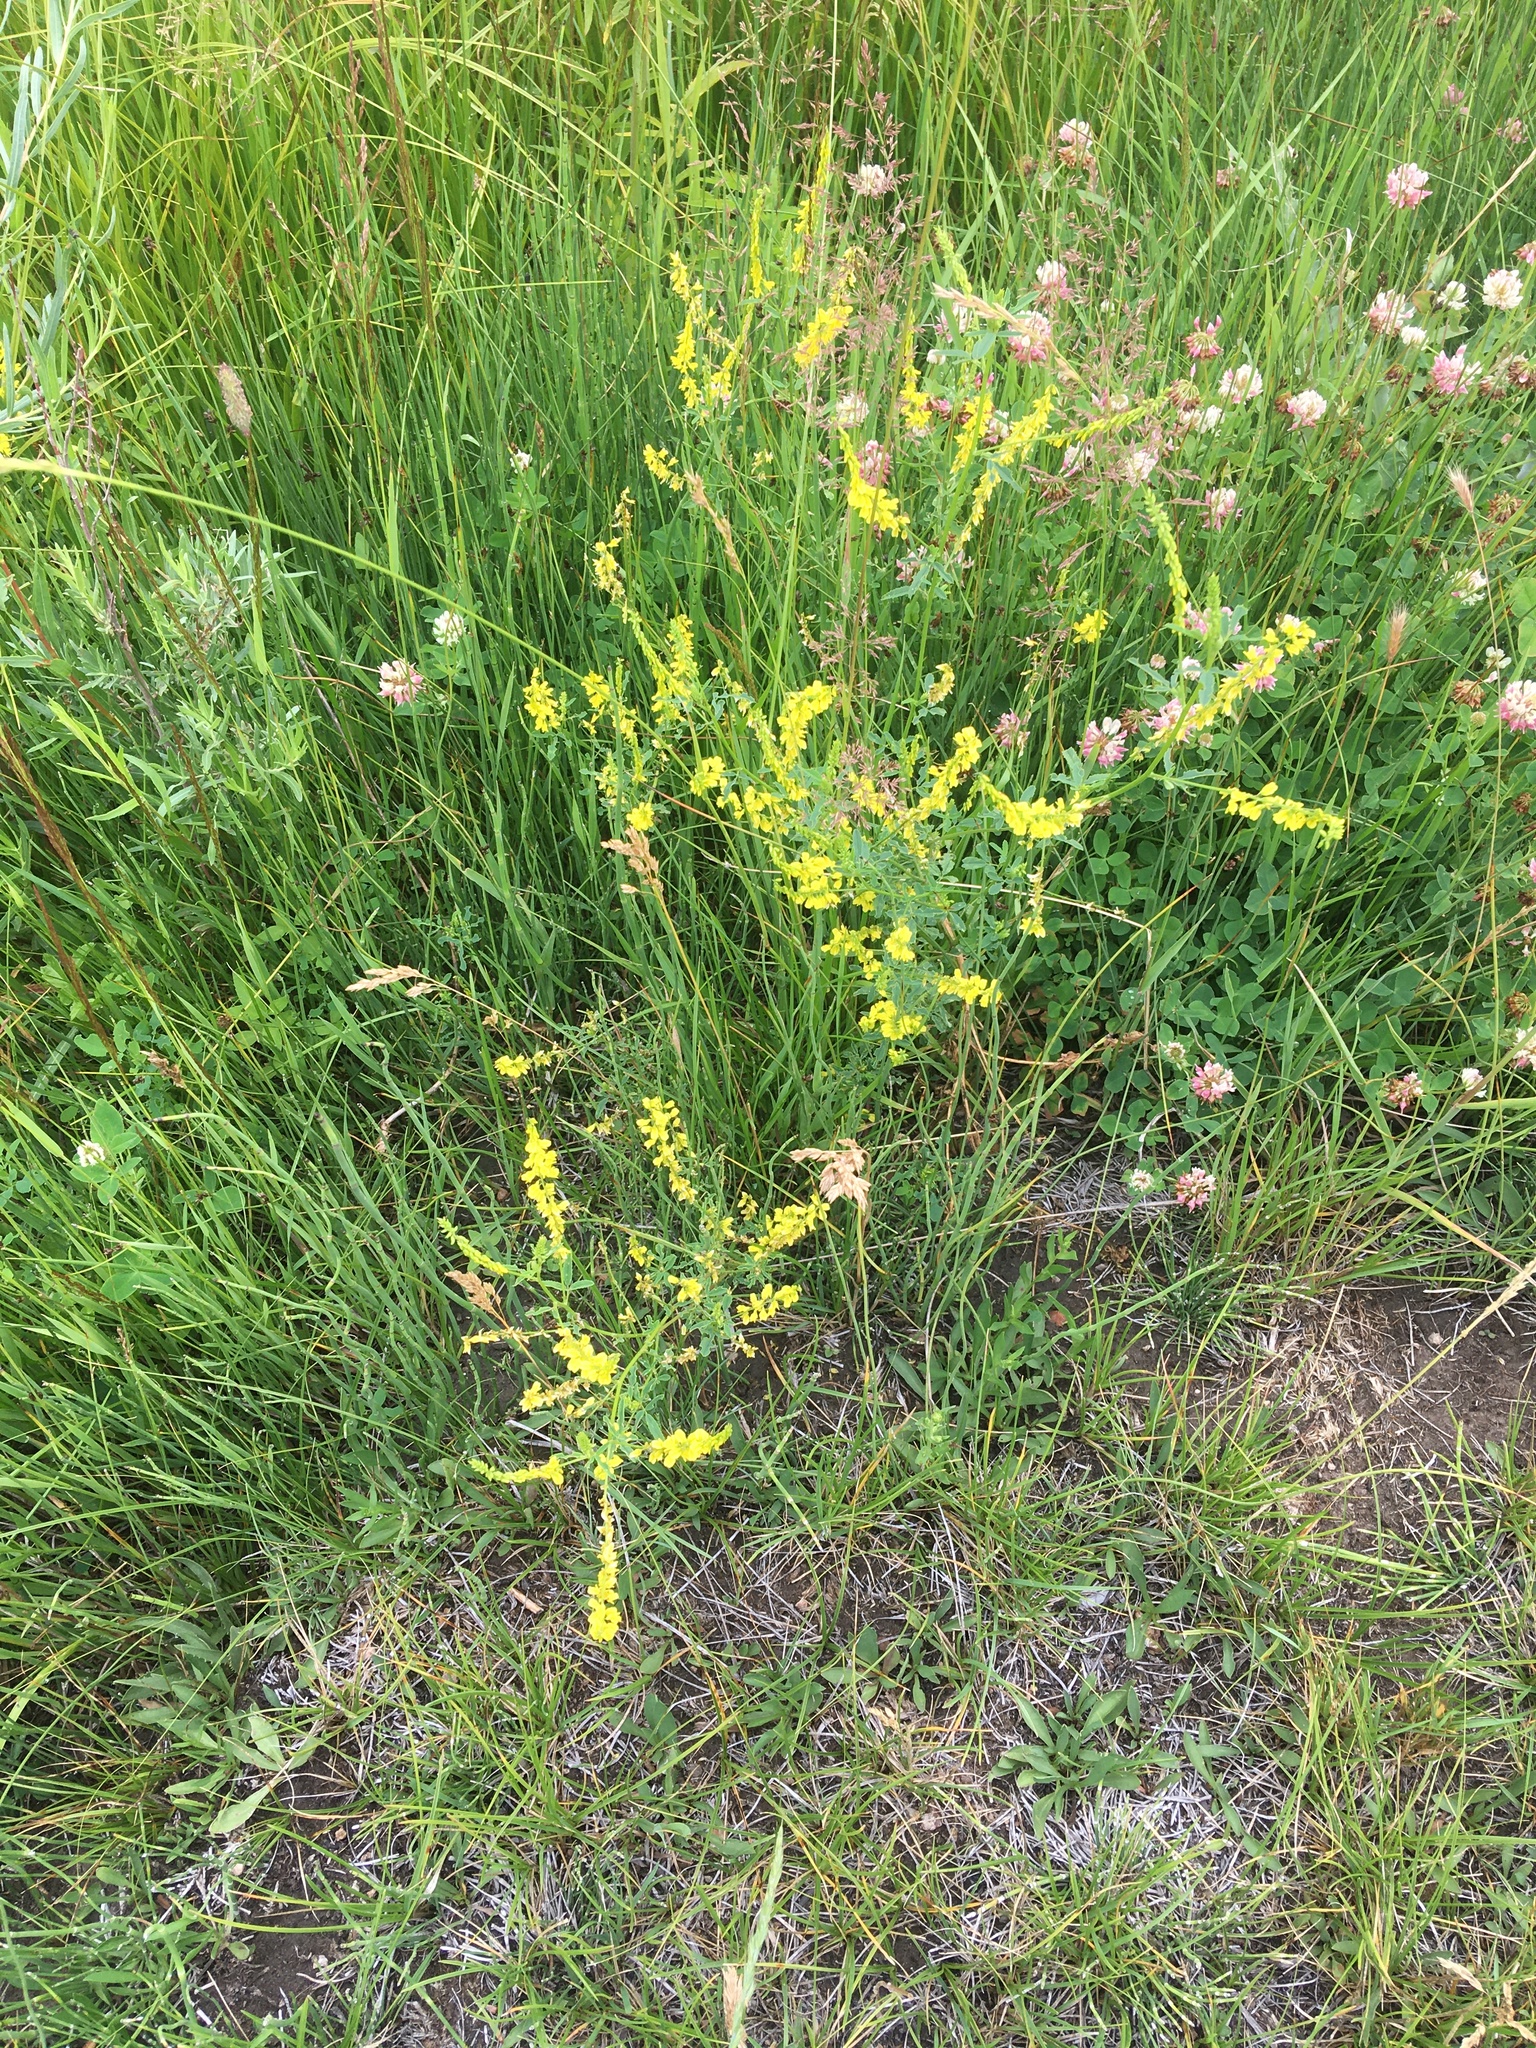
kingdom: Plantae
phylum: Tracheophyta
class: Magnoliopsida
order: Fabales
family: Fabaceae
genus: Melilotus
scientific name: Melilotus officinalis
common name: Sweetclover
